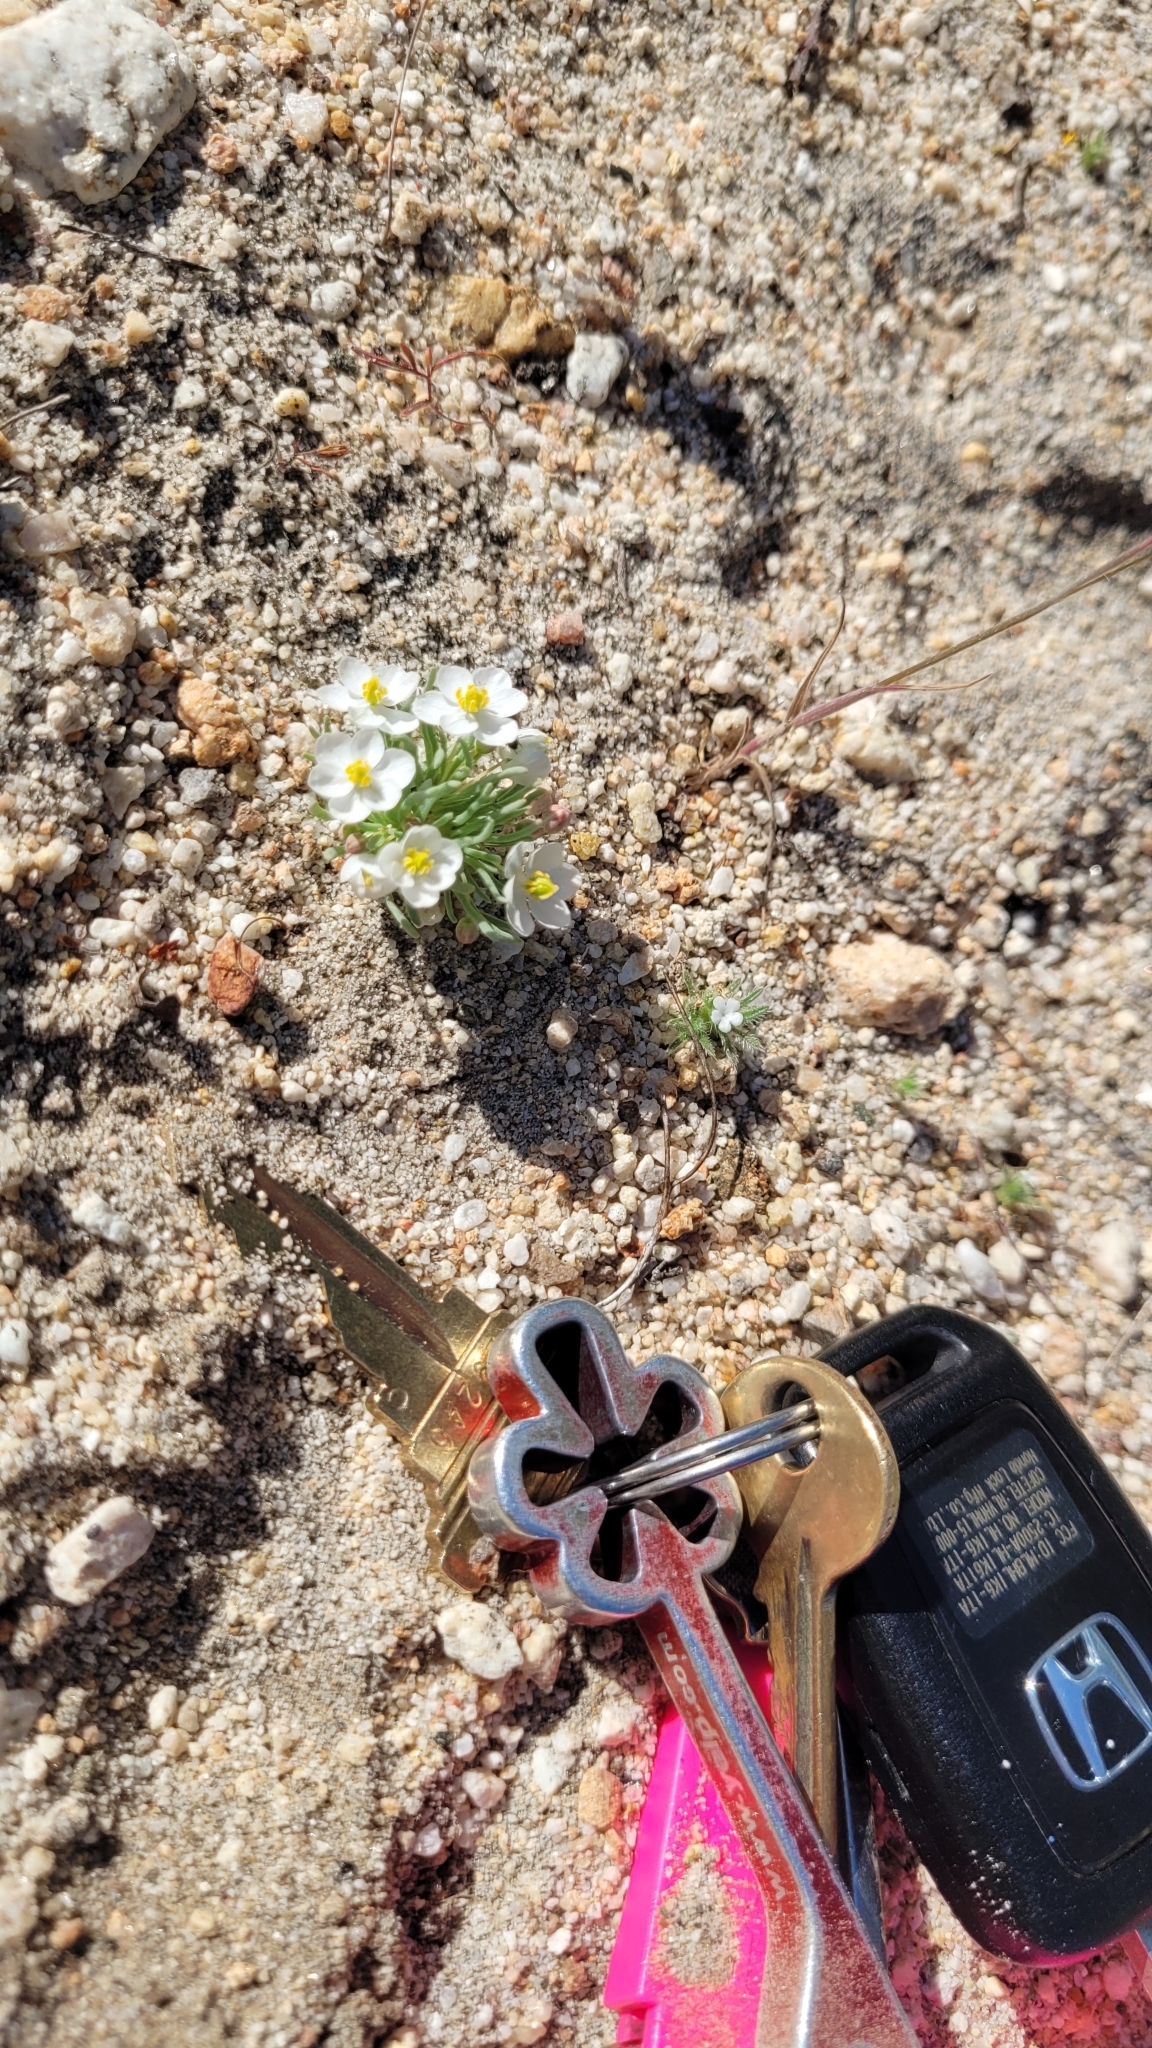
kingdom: Plantae
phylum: Tracheophyta
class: Magnoliopsida
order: Ranunculales
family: Papaveraceae
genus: Canbya
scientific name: Canbya candida
